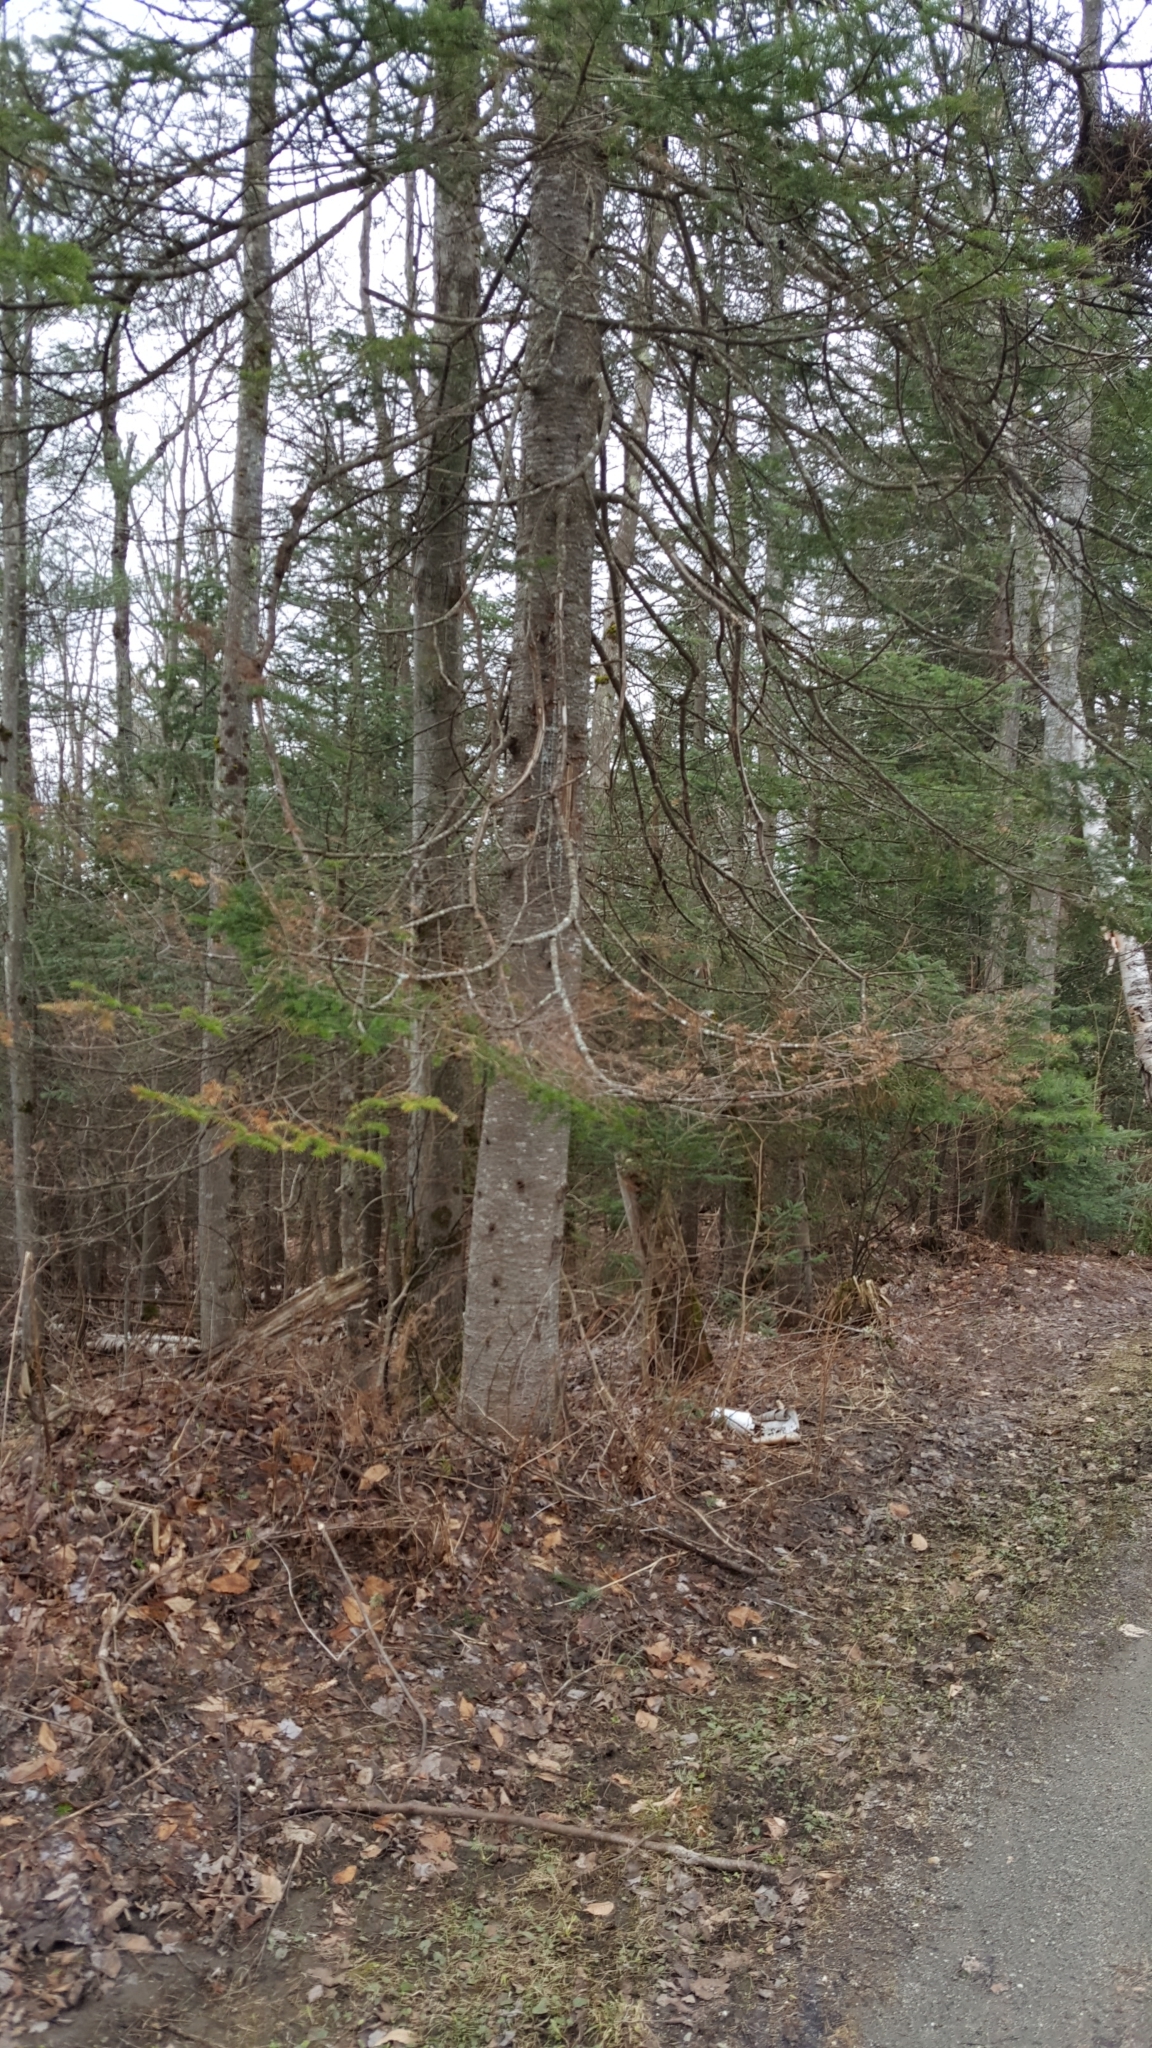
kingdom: Plantae
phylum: Tracheophyta
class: Pinopsida
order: Pinales
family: Pinaceae
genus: Abies
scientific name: Abies balsamea
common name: Balsam fir
